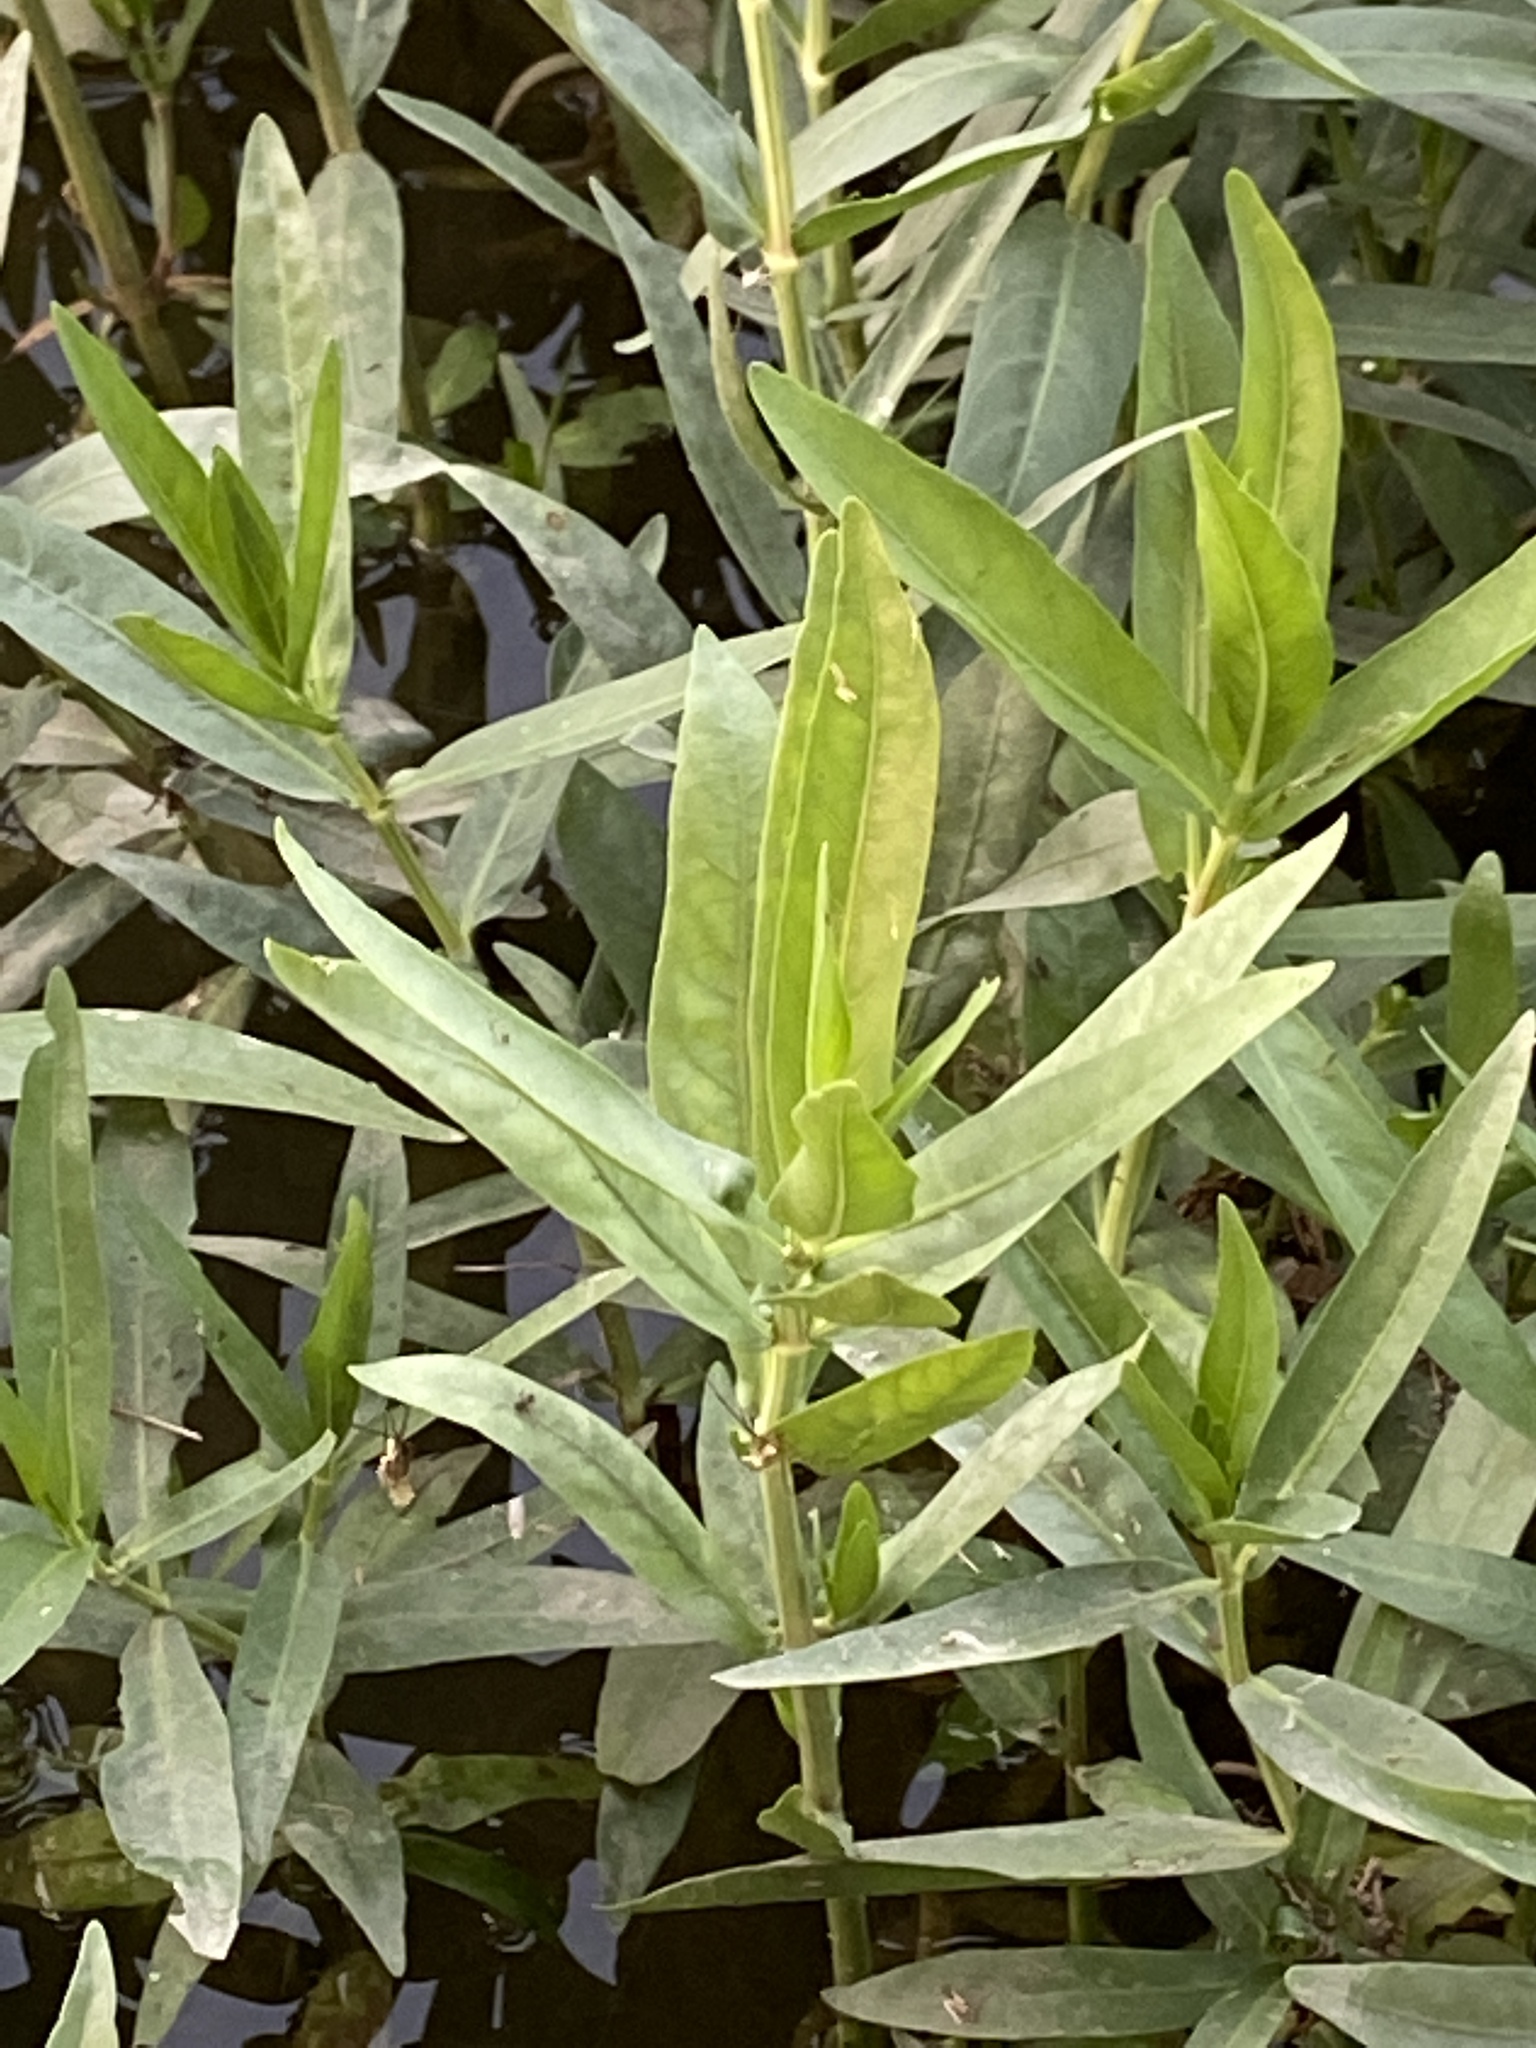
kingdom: Plantae
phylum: Tracheophyta
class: Magnoliopsida
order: Lamiales
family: Acanthaceae
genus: Dianthera
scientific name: Dianthera americana
